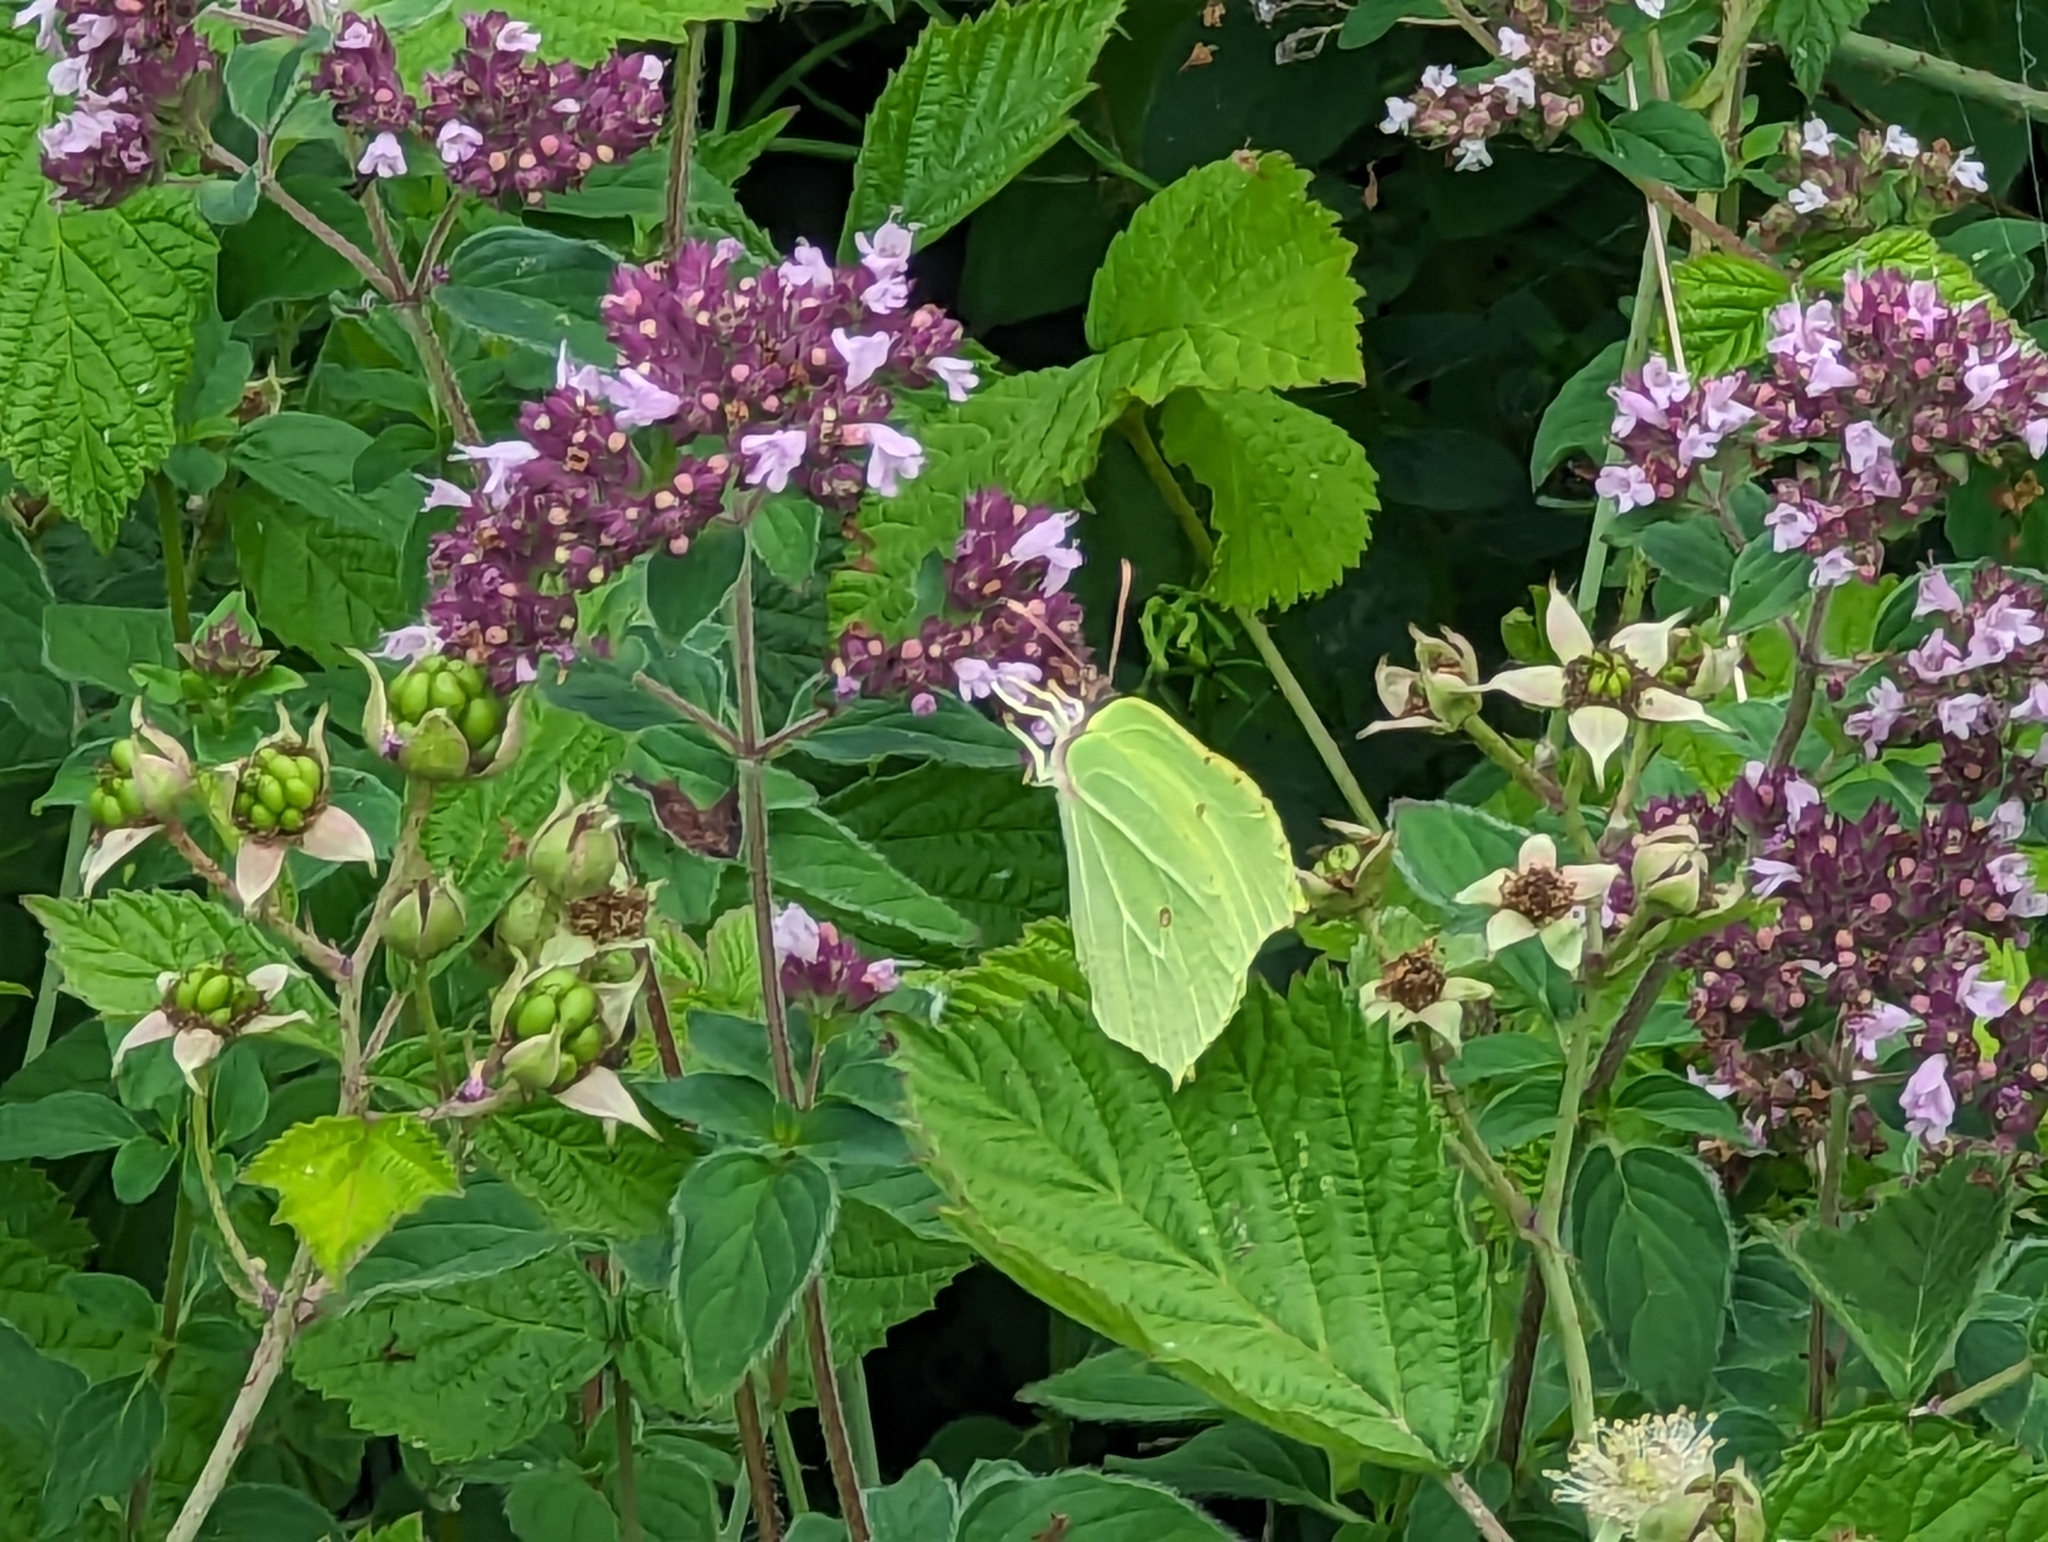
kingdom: Animalia
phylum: Arthropoda
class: Insecta
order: Lepidoptera
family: Pieridae
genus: Gonepteryx
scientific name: Gonepteryx rhamni
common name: Brimstone
